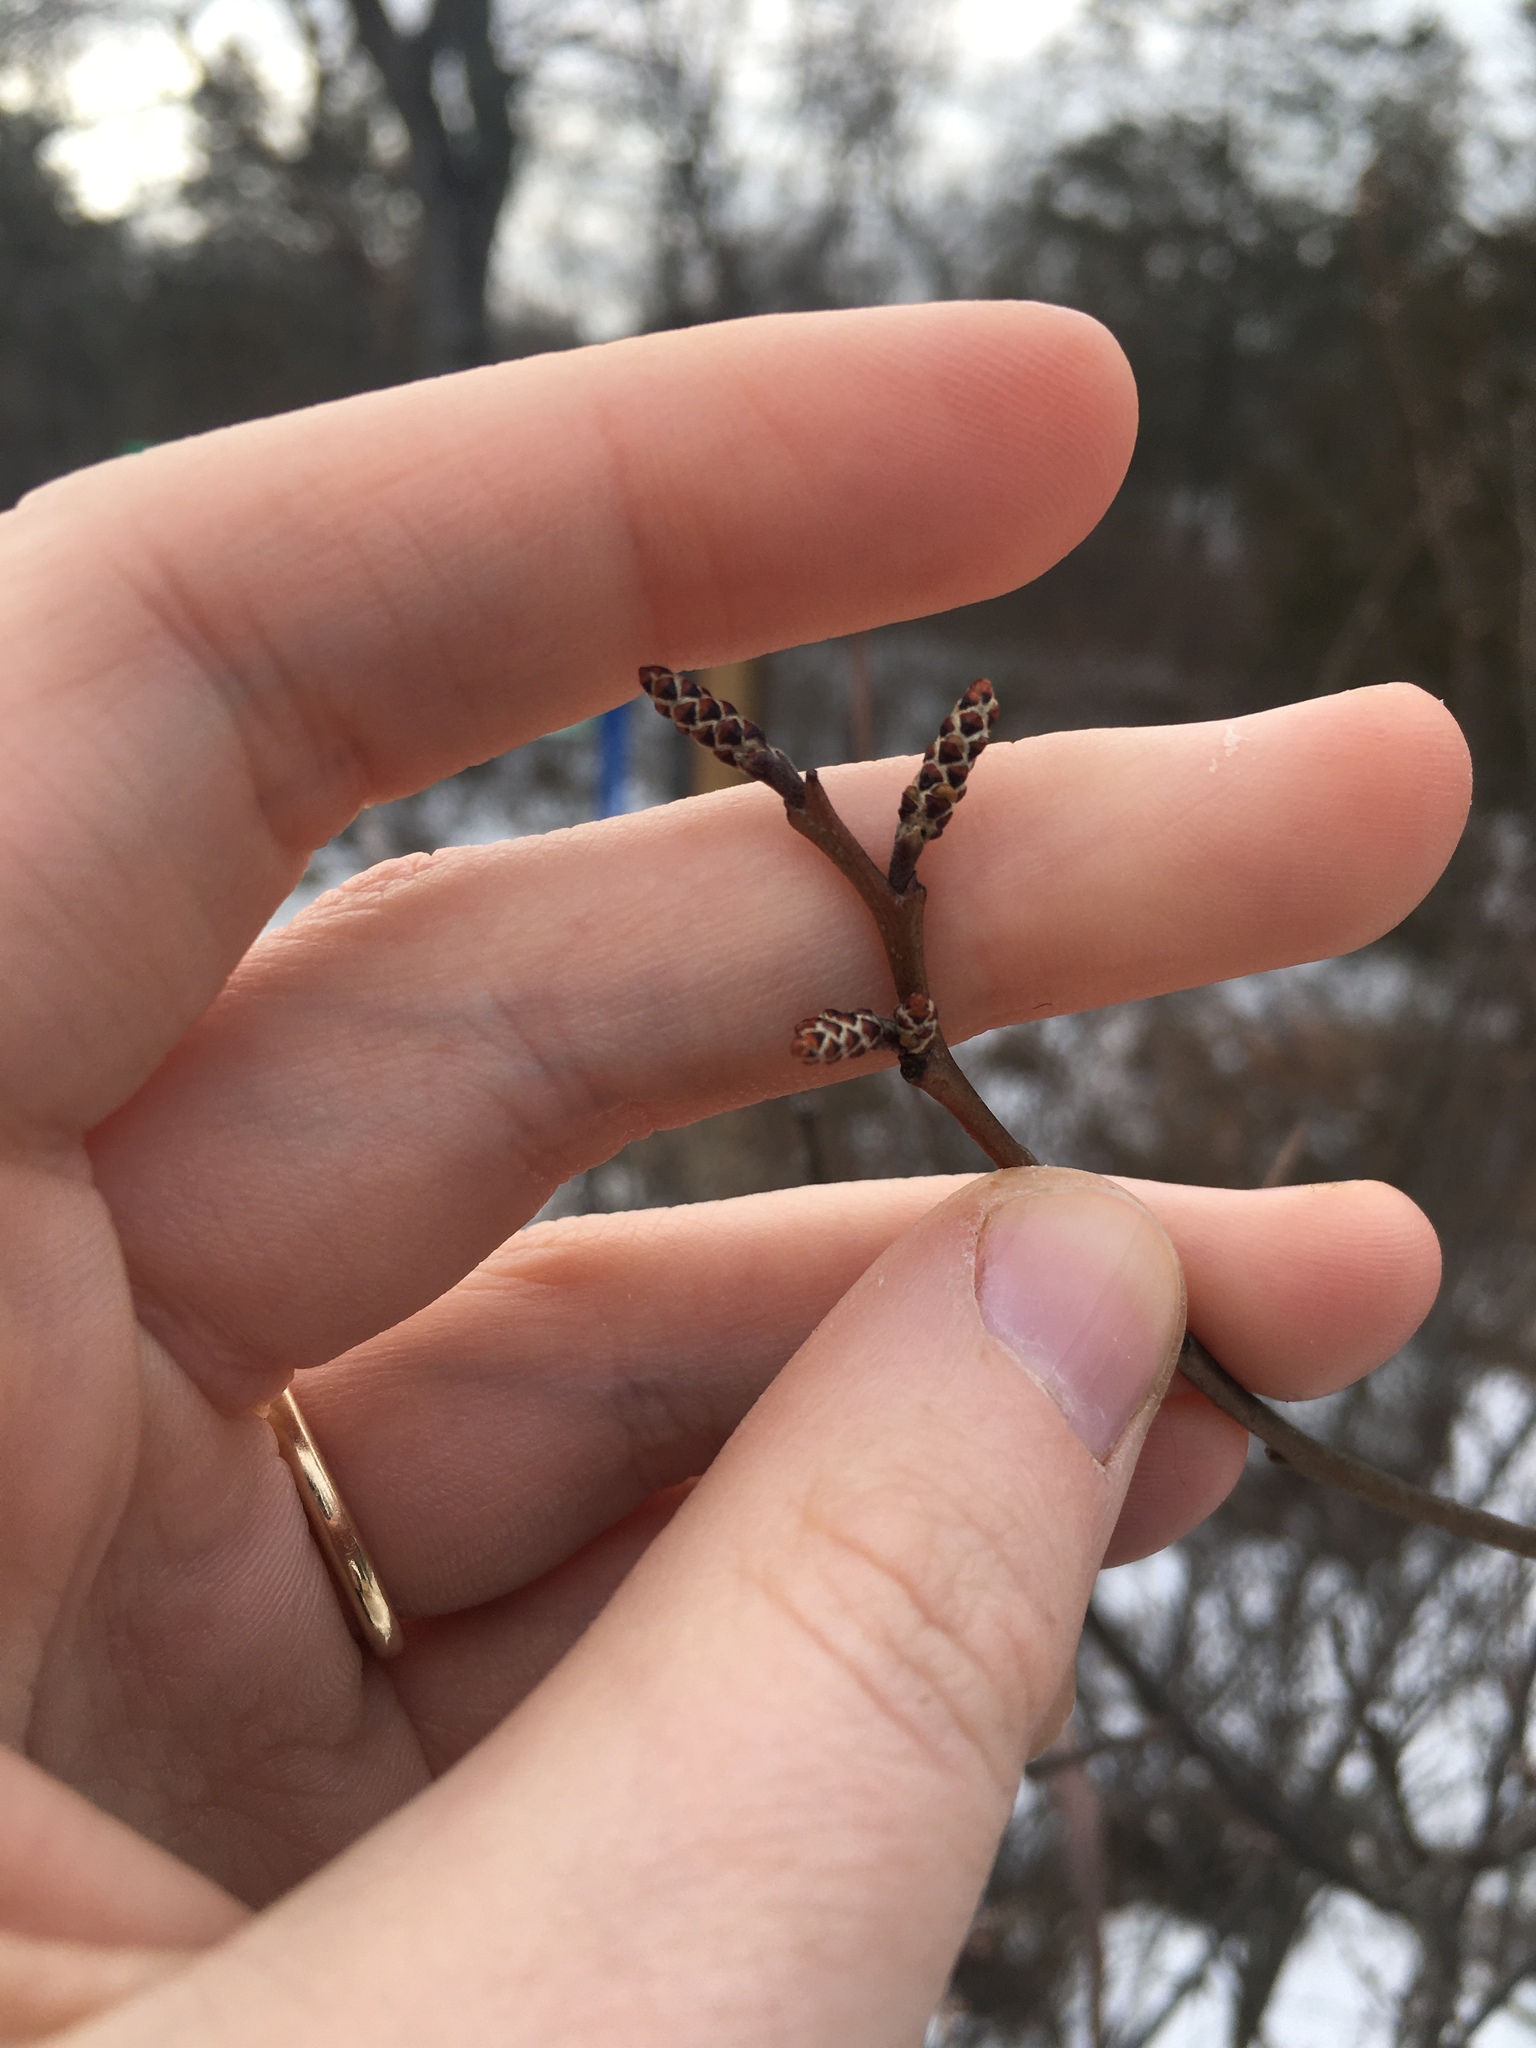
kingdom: Plantae
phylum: Tracheophyta
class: Magnoliopsida
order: Sapindales
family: Anacardiaceae
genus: Rhus
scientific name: Rhus aromatica
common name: Aromatic sumac
